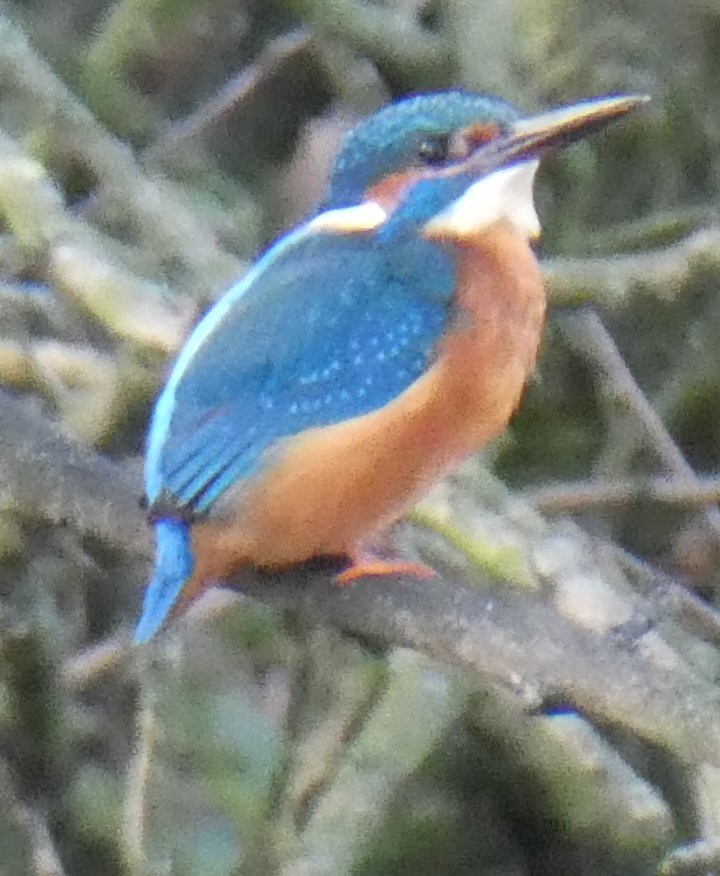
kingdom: Animalia
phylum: Chordata
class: Aves
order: Coraciiformes
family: Alcedinidae
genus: Alcedo
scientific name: Alcedo atthis
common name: Common kingfisher
